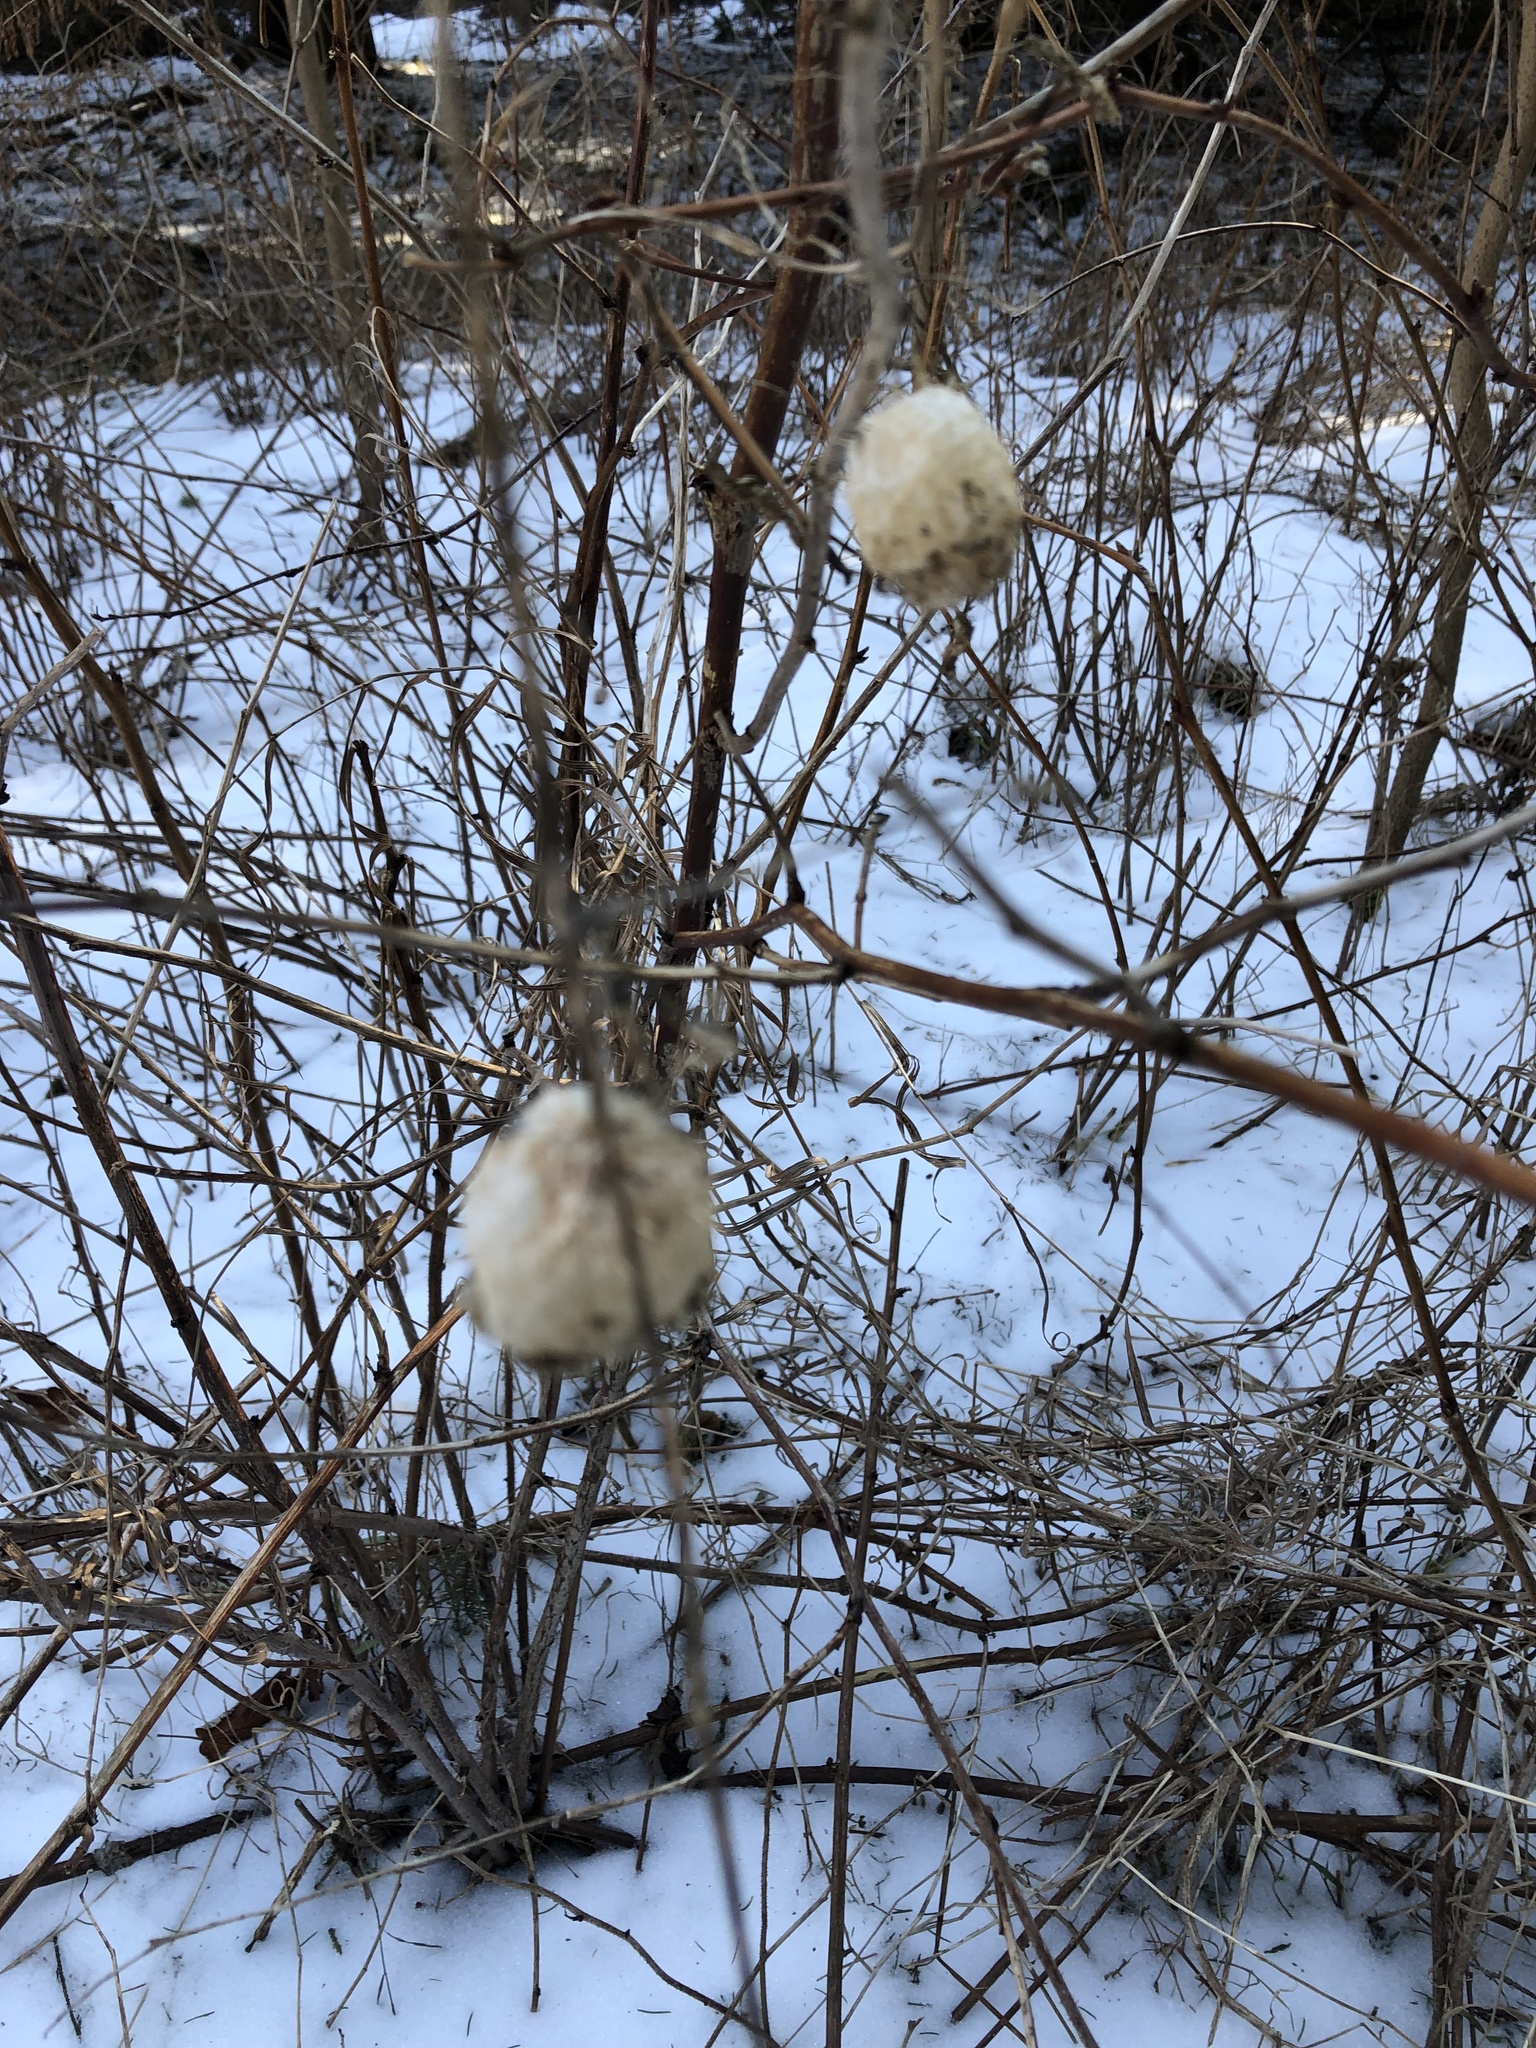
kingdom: Plantae
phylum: Tracheophyta
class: Magnoliopsida
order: Cucurbitales
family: Cucurbitaceae
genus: Echinocystis
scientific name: Echinocystis lobata
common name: Wild cucumber
